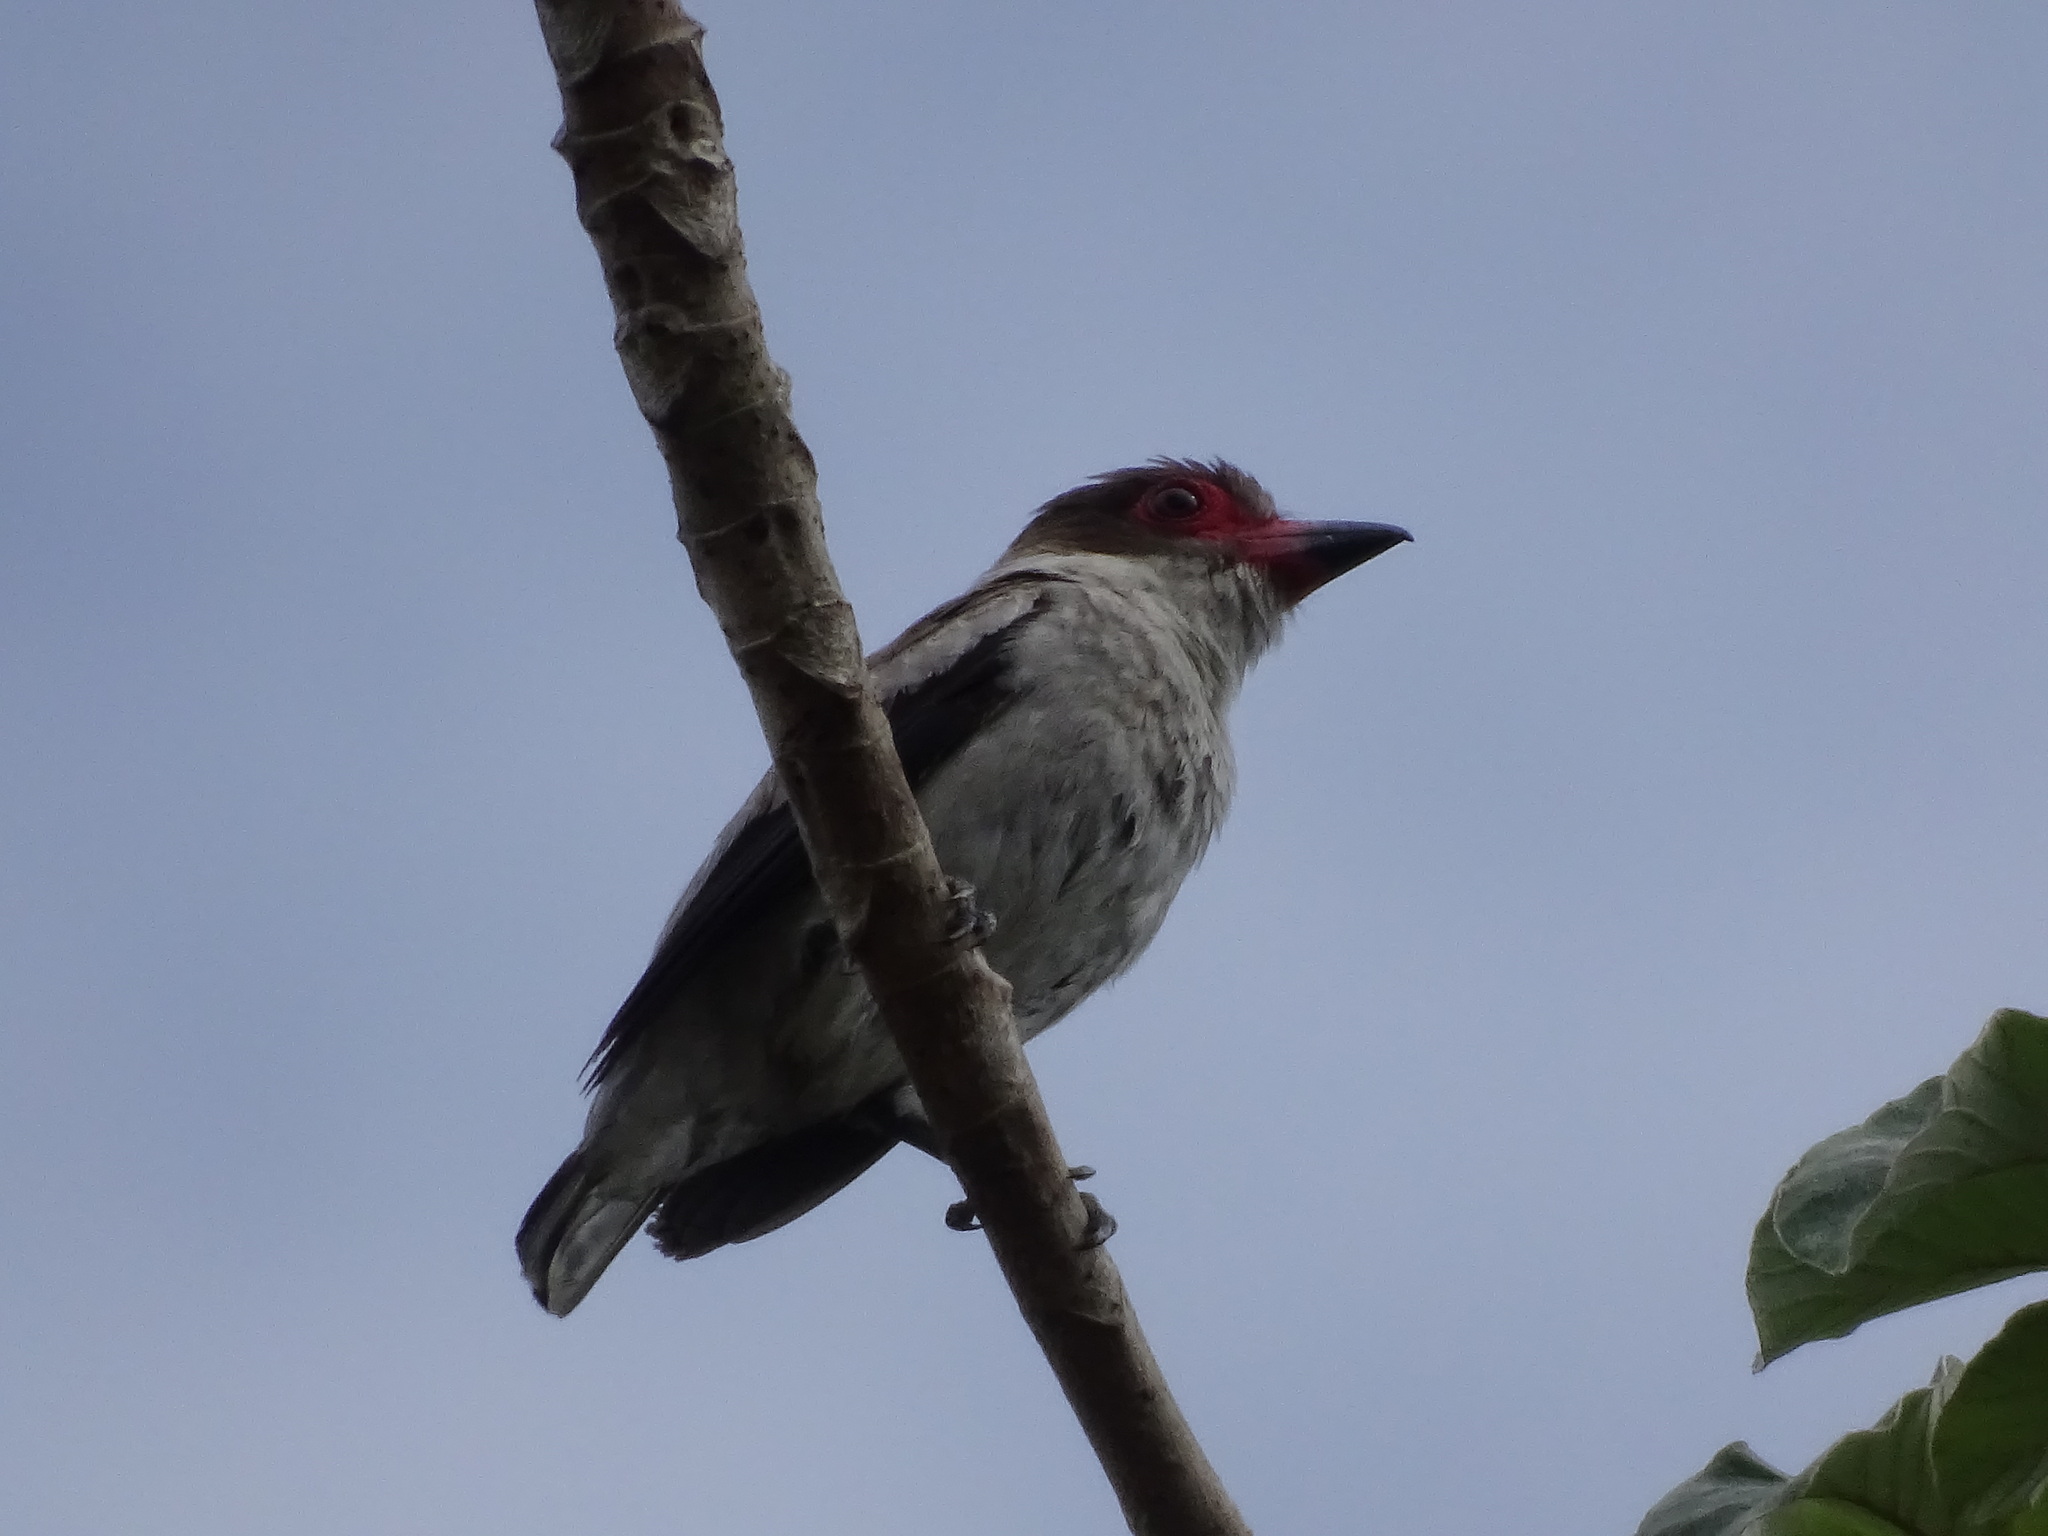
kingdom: Animalia
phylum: Chordata
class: Aves
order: Passeriformes
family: Cotingidae
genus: Tityra
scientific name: Tityra semifasciata
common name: Masked tityra
